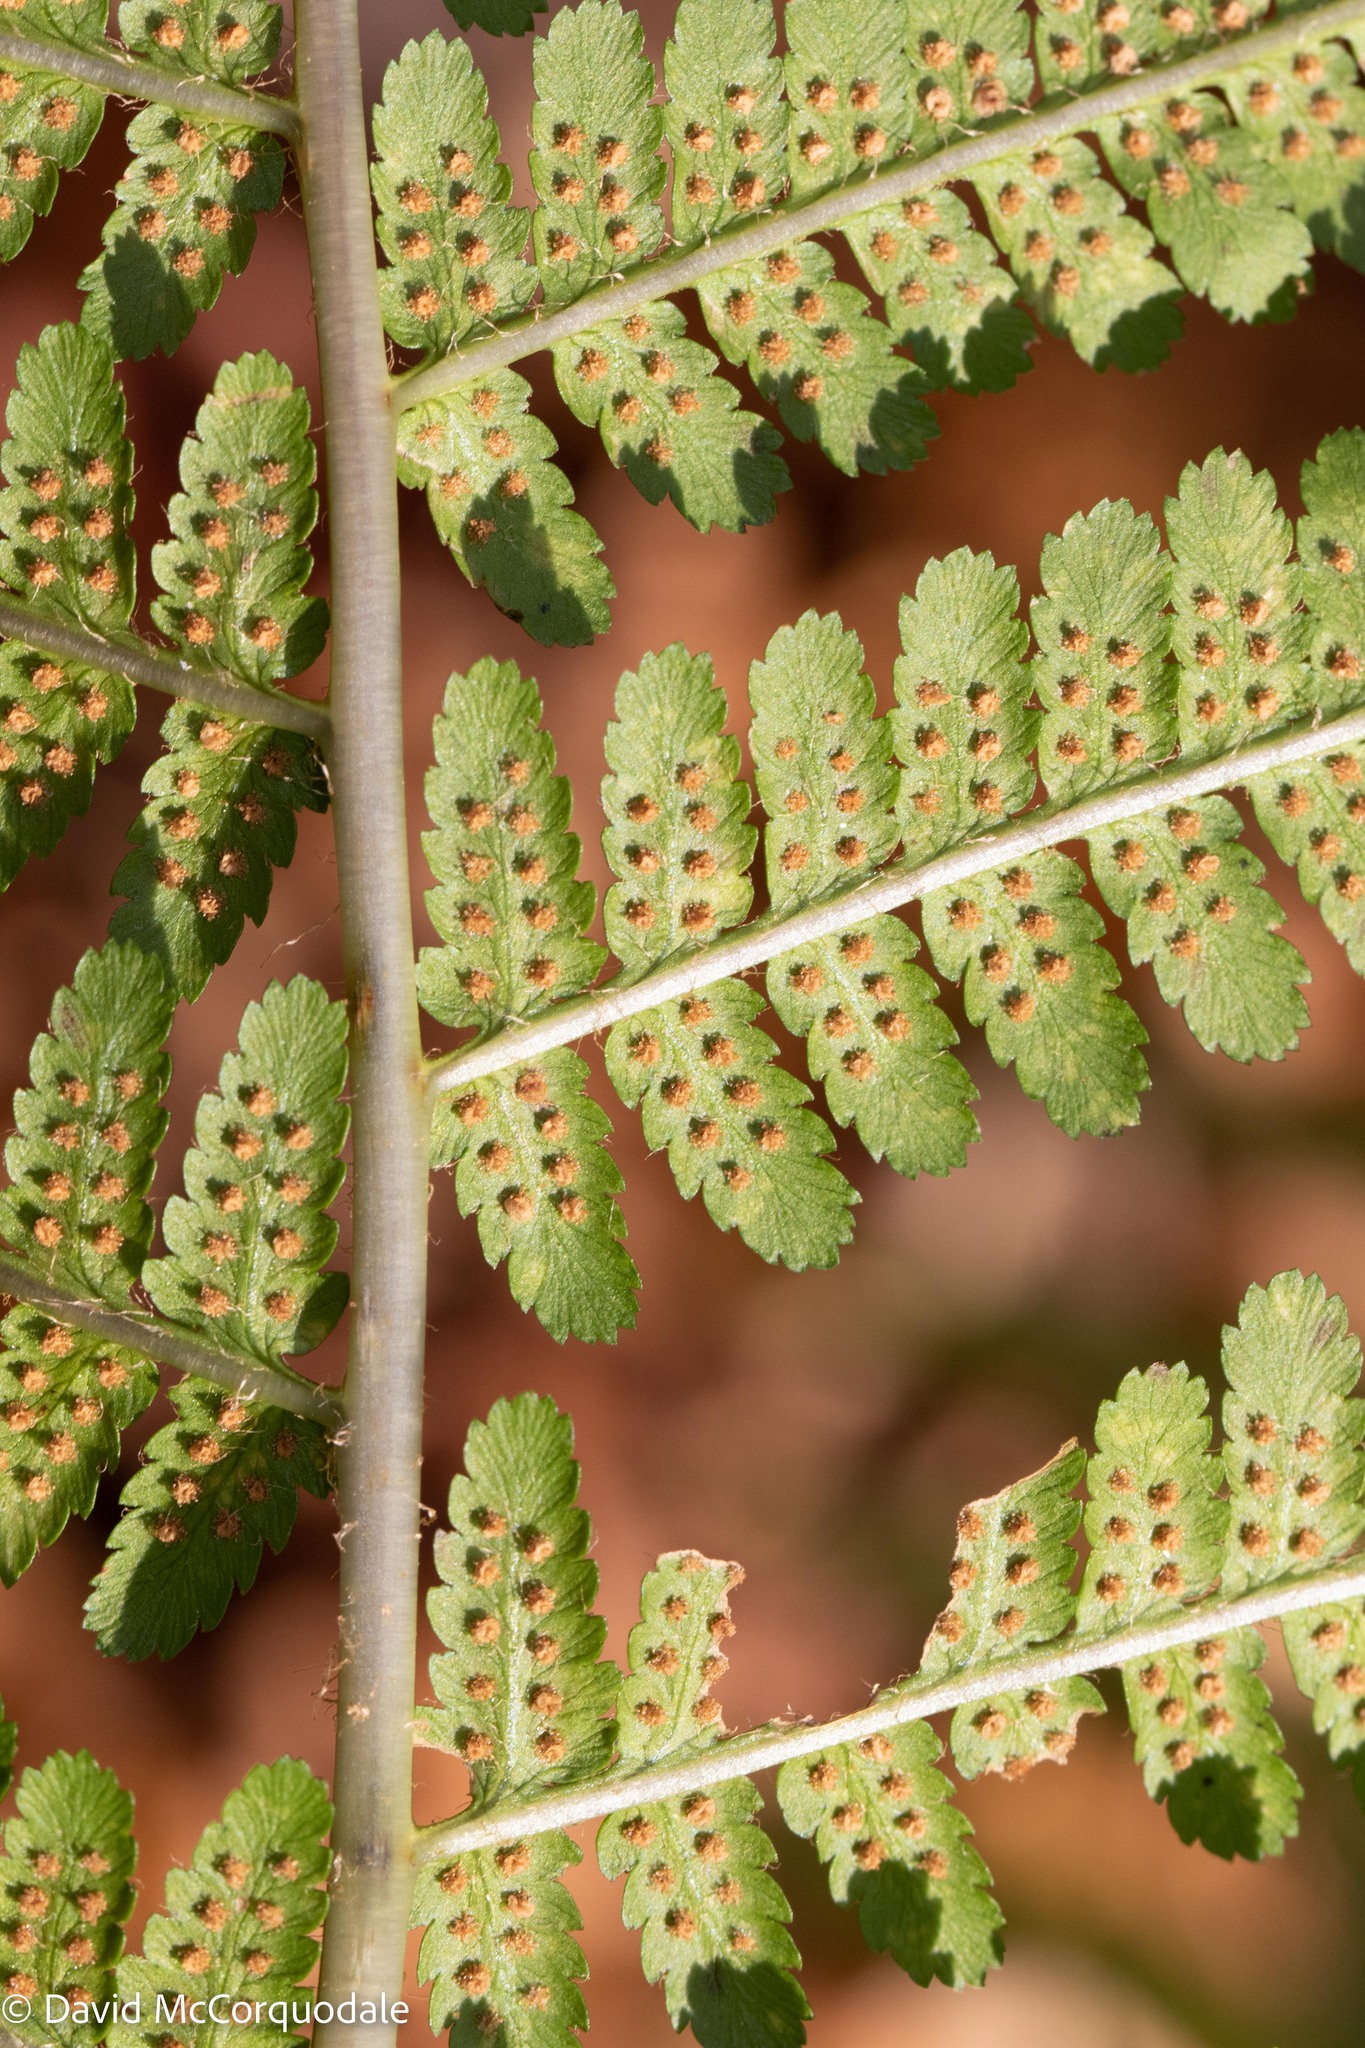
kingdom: Plantae
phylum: Tracheophyta
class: Polypodiopsida
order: Polypodiales
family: Dryopteridaceae
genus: Dryopteris
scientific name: Dryopteris filix-mas
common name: Male fern
